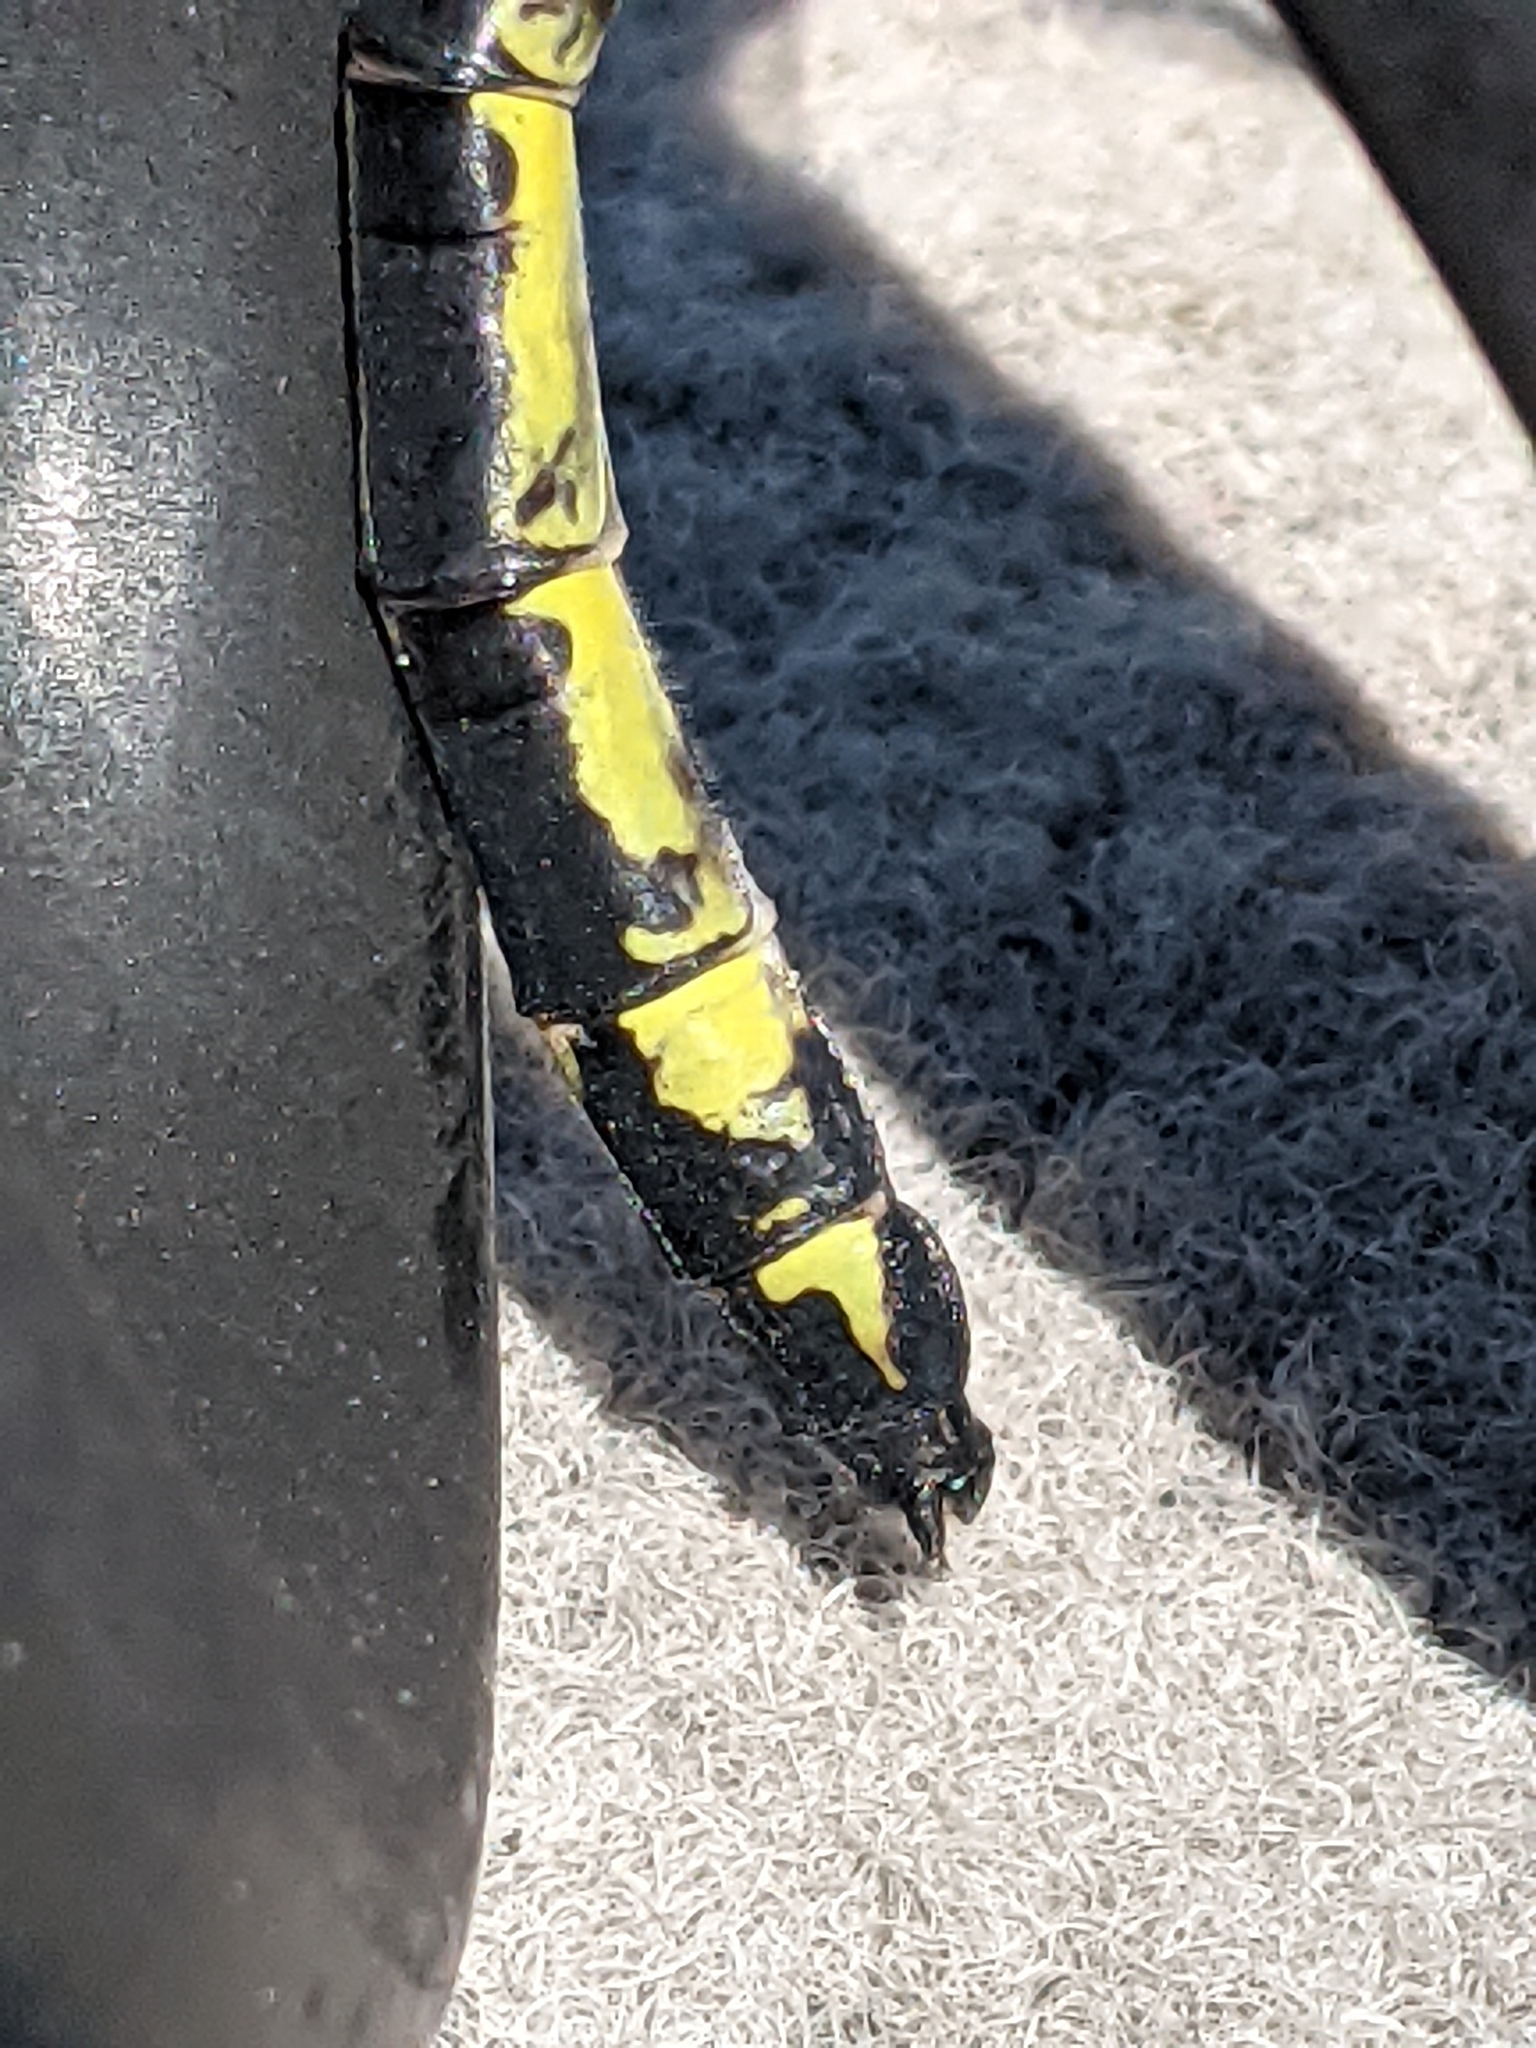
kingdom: Animalia
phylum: Arthropoda
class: Insecta
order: Odonata
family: Gomphidae
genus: Hagenius
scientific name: Hagenius brevistylus
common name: Dragonhunter
